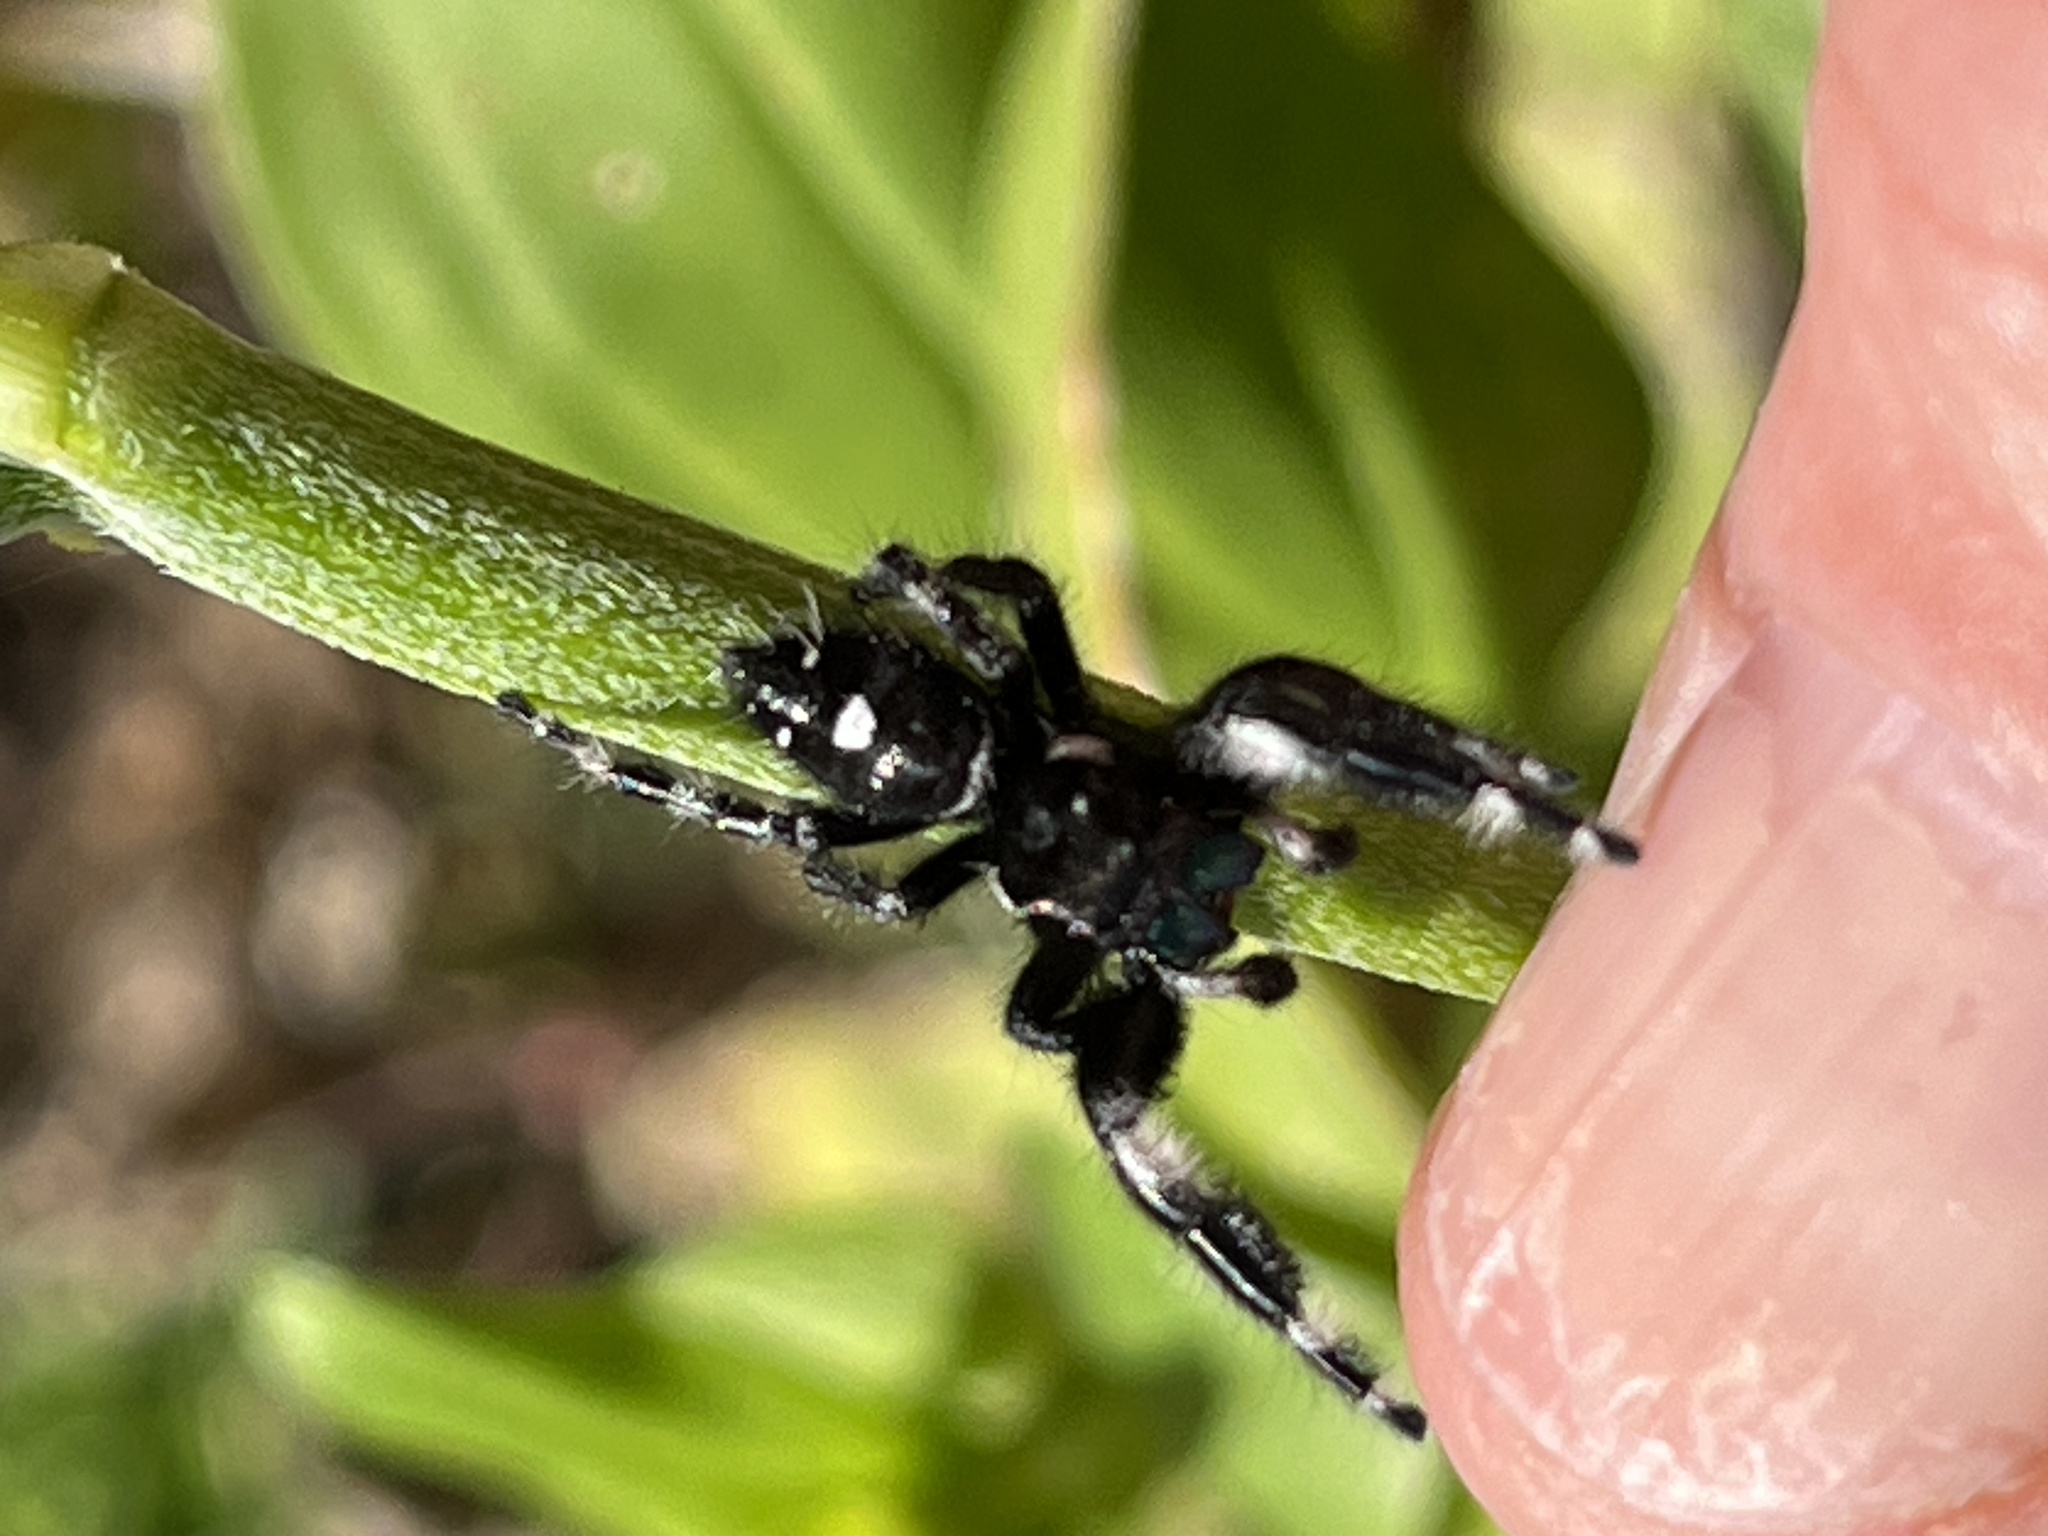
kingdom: Animalia
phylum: Arthropoda
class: Arachnida
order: Araneae
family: Salticidae
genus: Phidippus
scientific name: Phidippus audax
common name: Bold jumper
